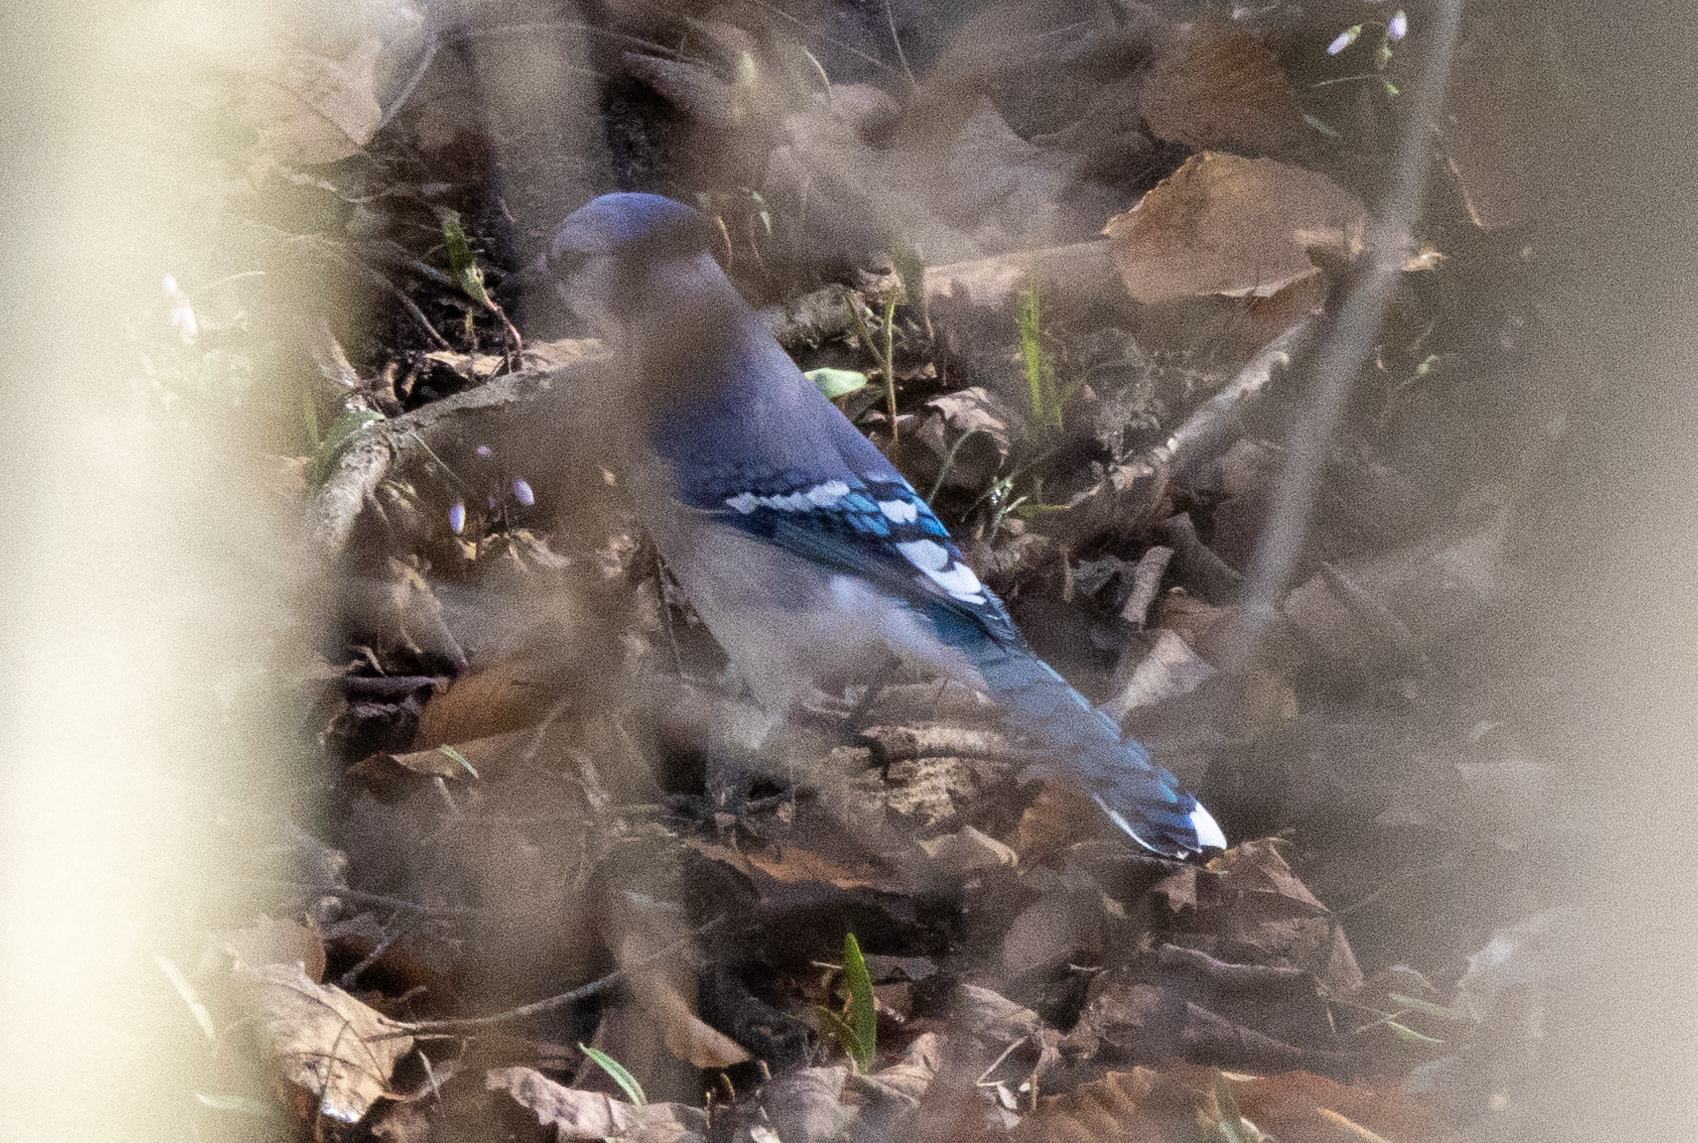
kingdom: Animalia
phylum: Chordata
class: Aves
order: Passeriformes
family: Corvidae
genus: Cyanocitta
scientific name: Cyanocitta cristata
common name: Blue jay
